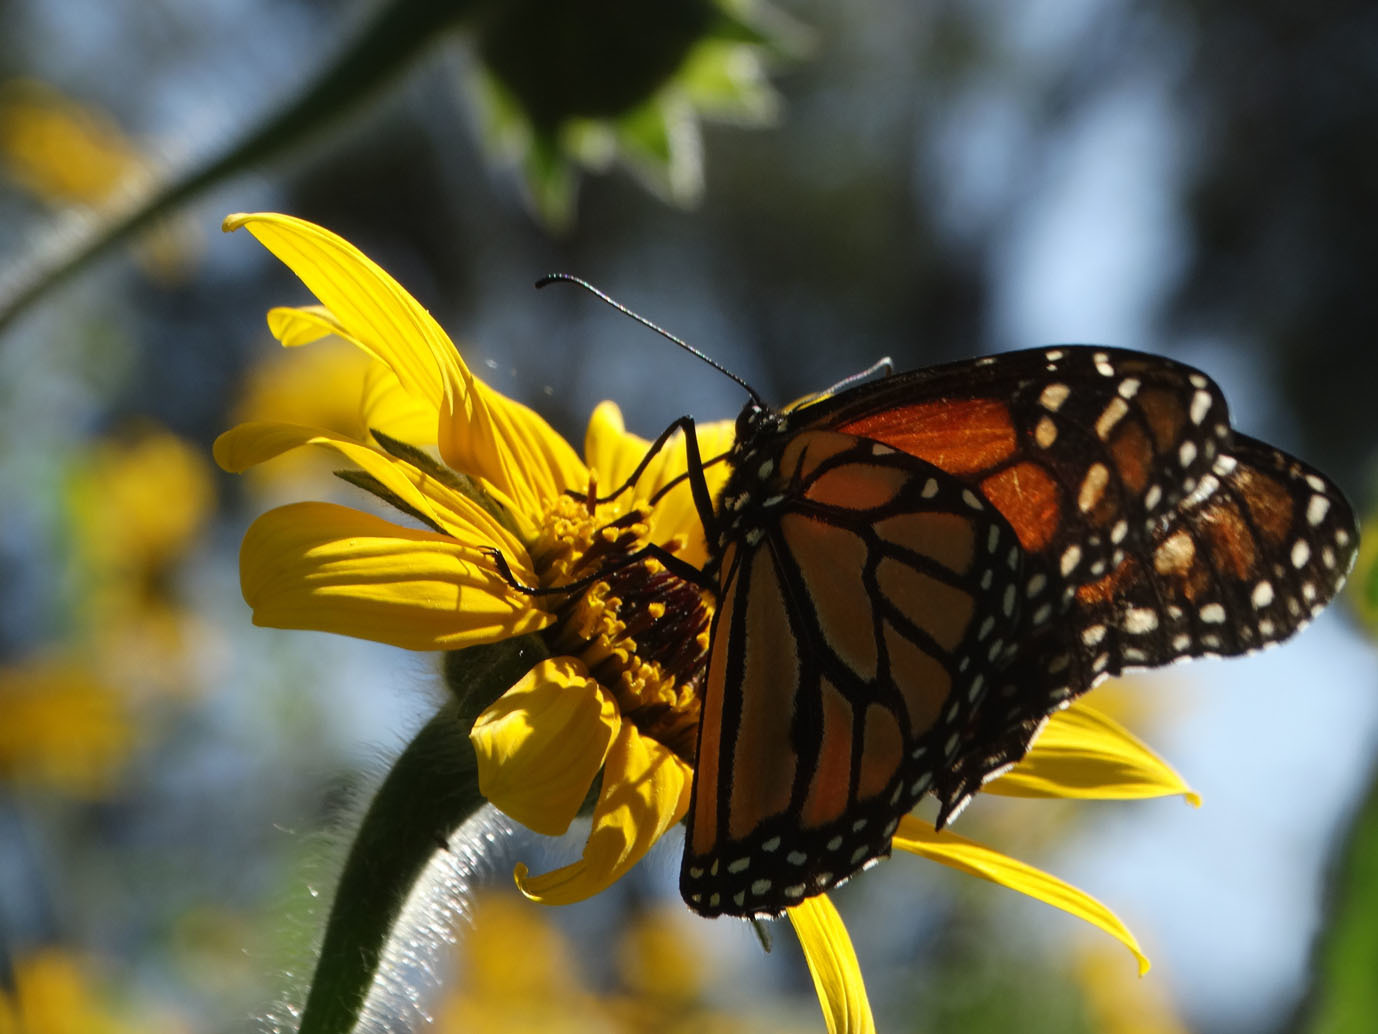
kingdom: Animalia
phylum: Arthropoda
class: Insecta
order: Lepidoptera
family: Nymphalidae
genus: Danaus
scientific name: Danaus plexippus
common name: Monarch
